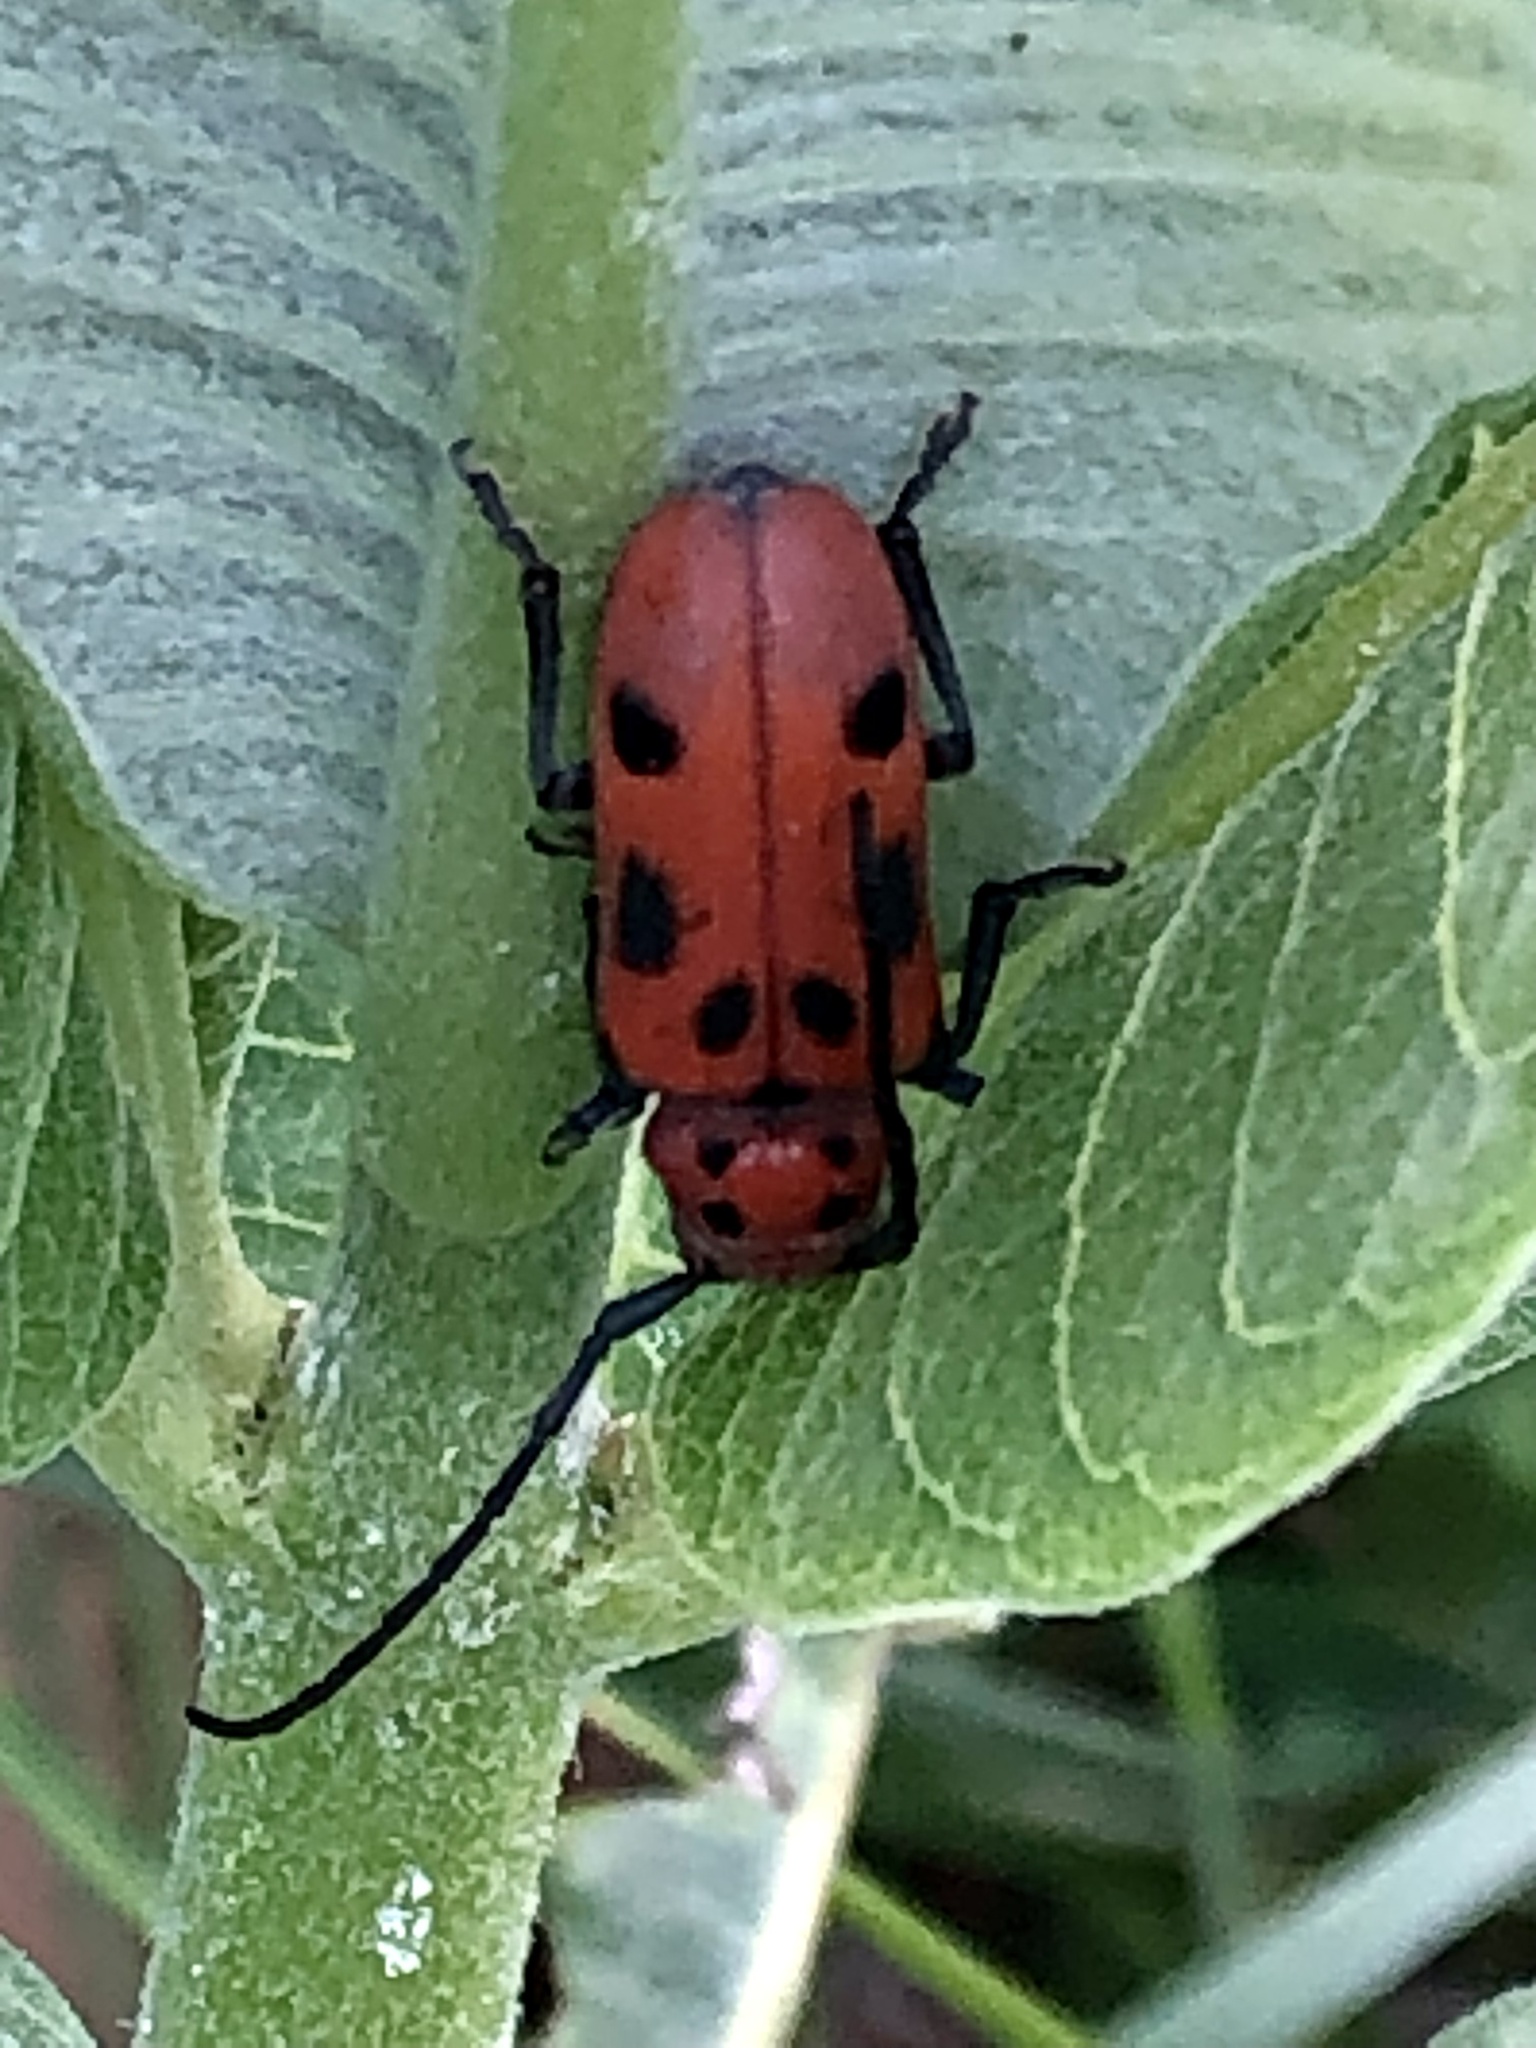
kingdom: Animalia
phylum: Arthropoda
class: Insecta
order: Coleoptera
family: Cerambycidae
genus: Tetraopes
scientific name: Tetraopes tetrophthalmus
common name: Red milkweed beetle
